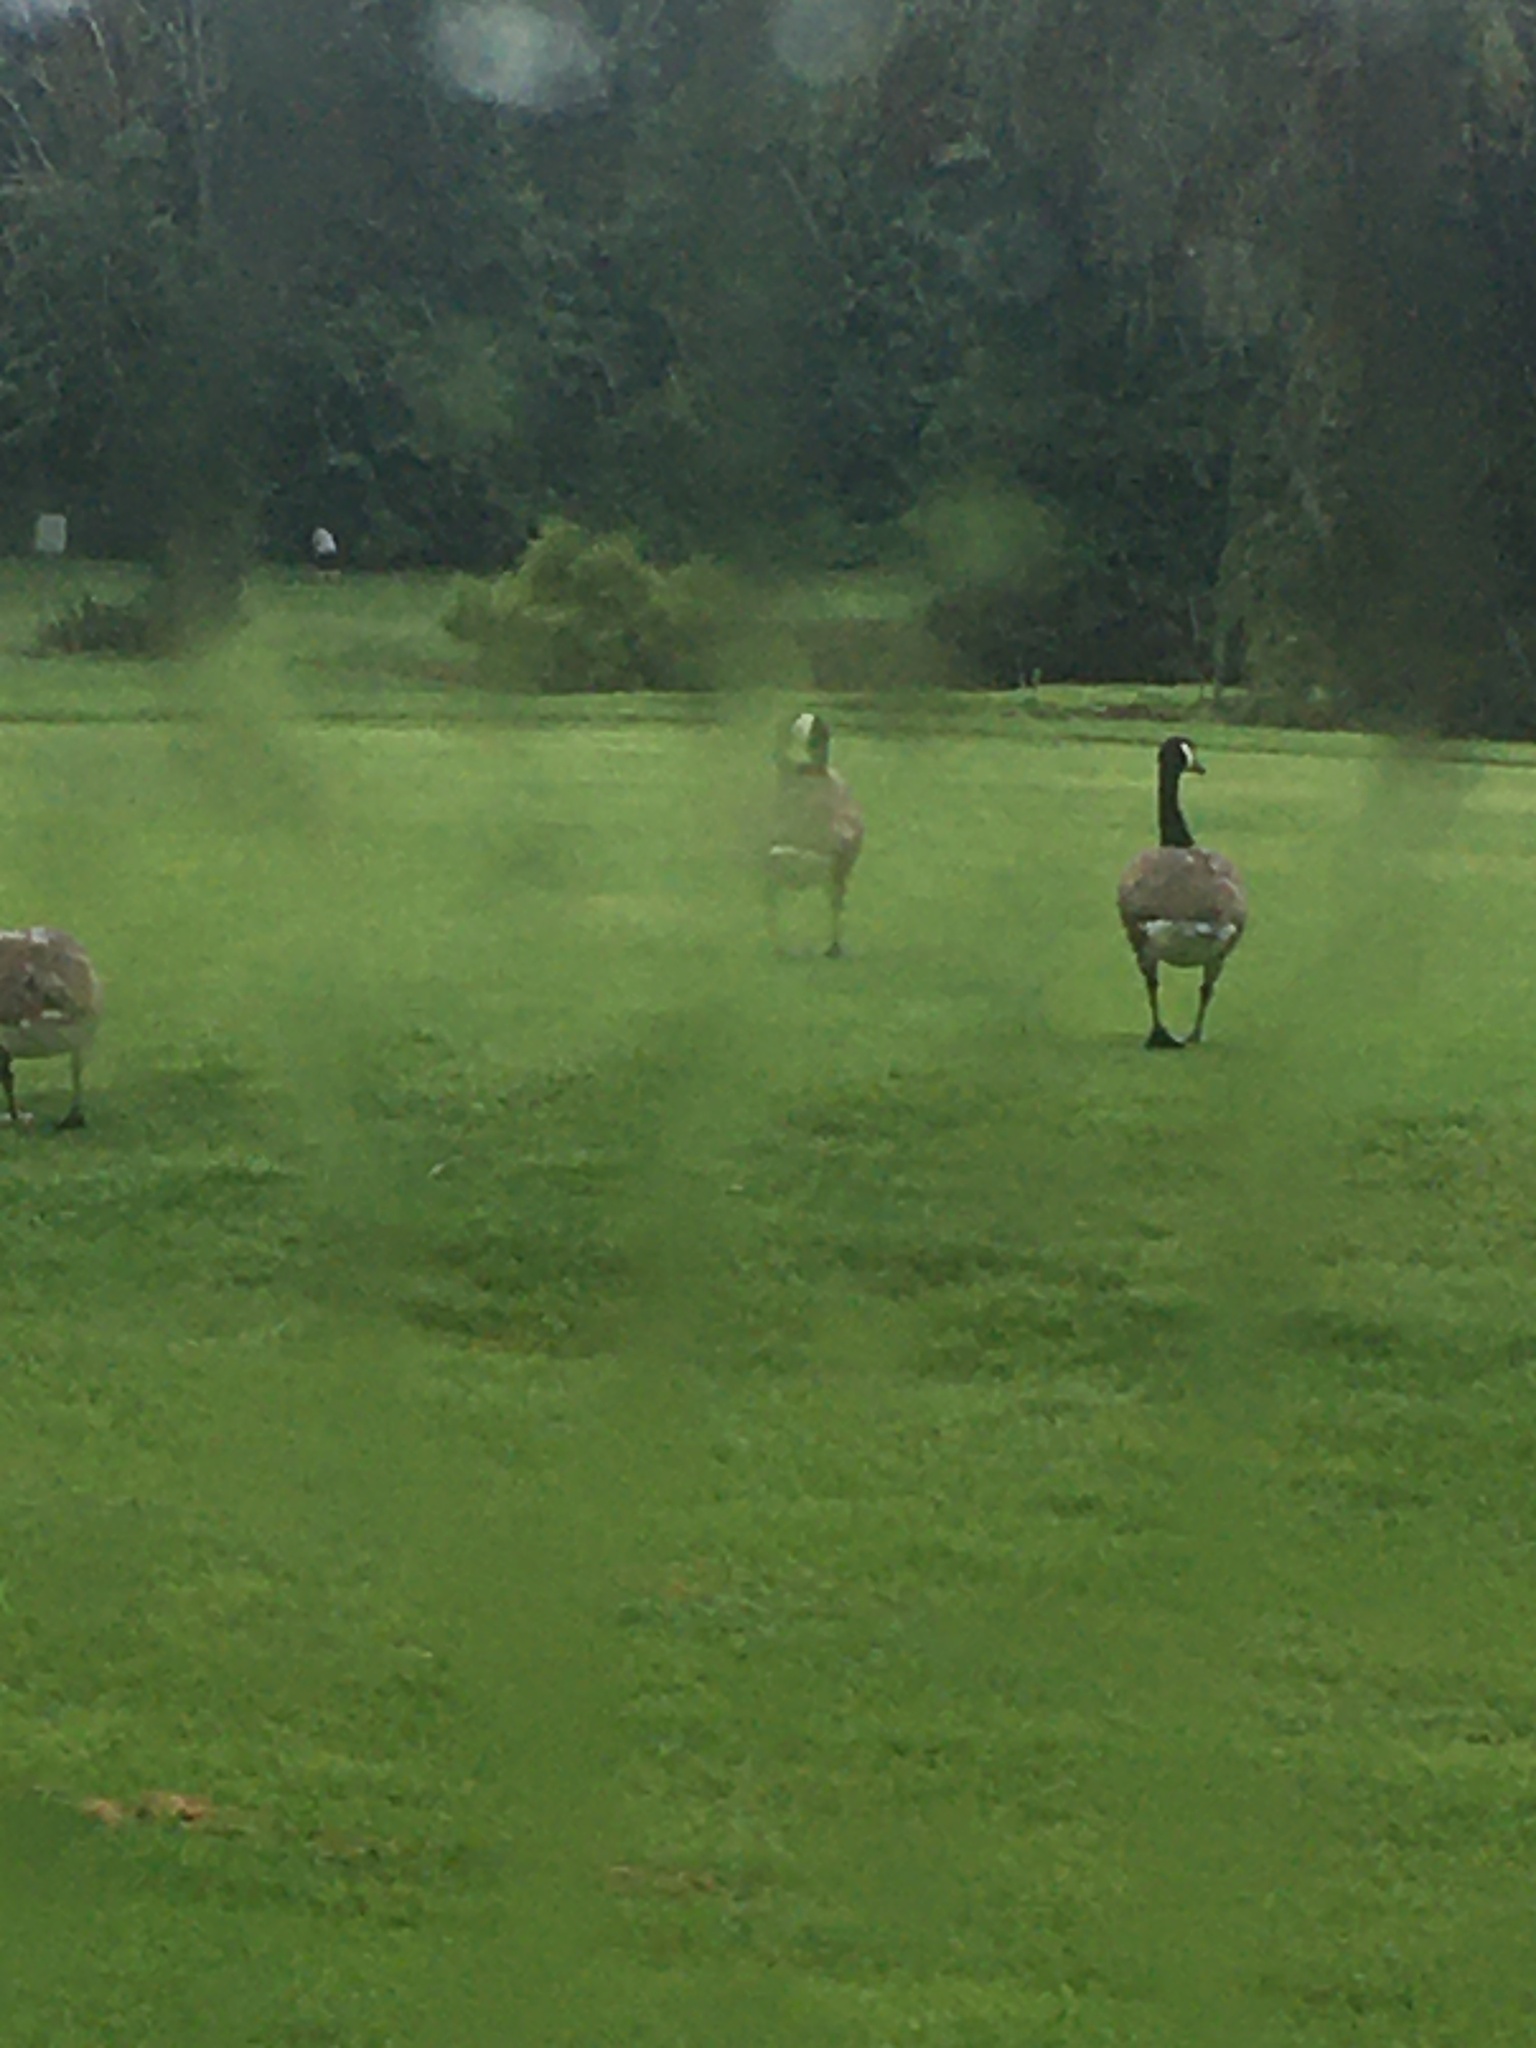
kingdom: Animalia
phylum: Chordata
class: Aves
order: Anseriformes
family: Anatidae
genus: Branta
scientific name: Branta canadensis
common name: Canada goose
